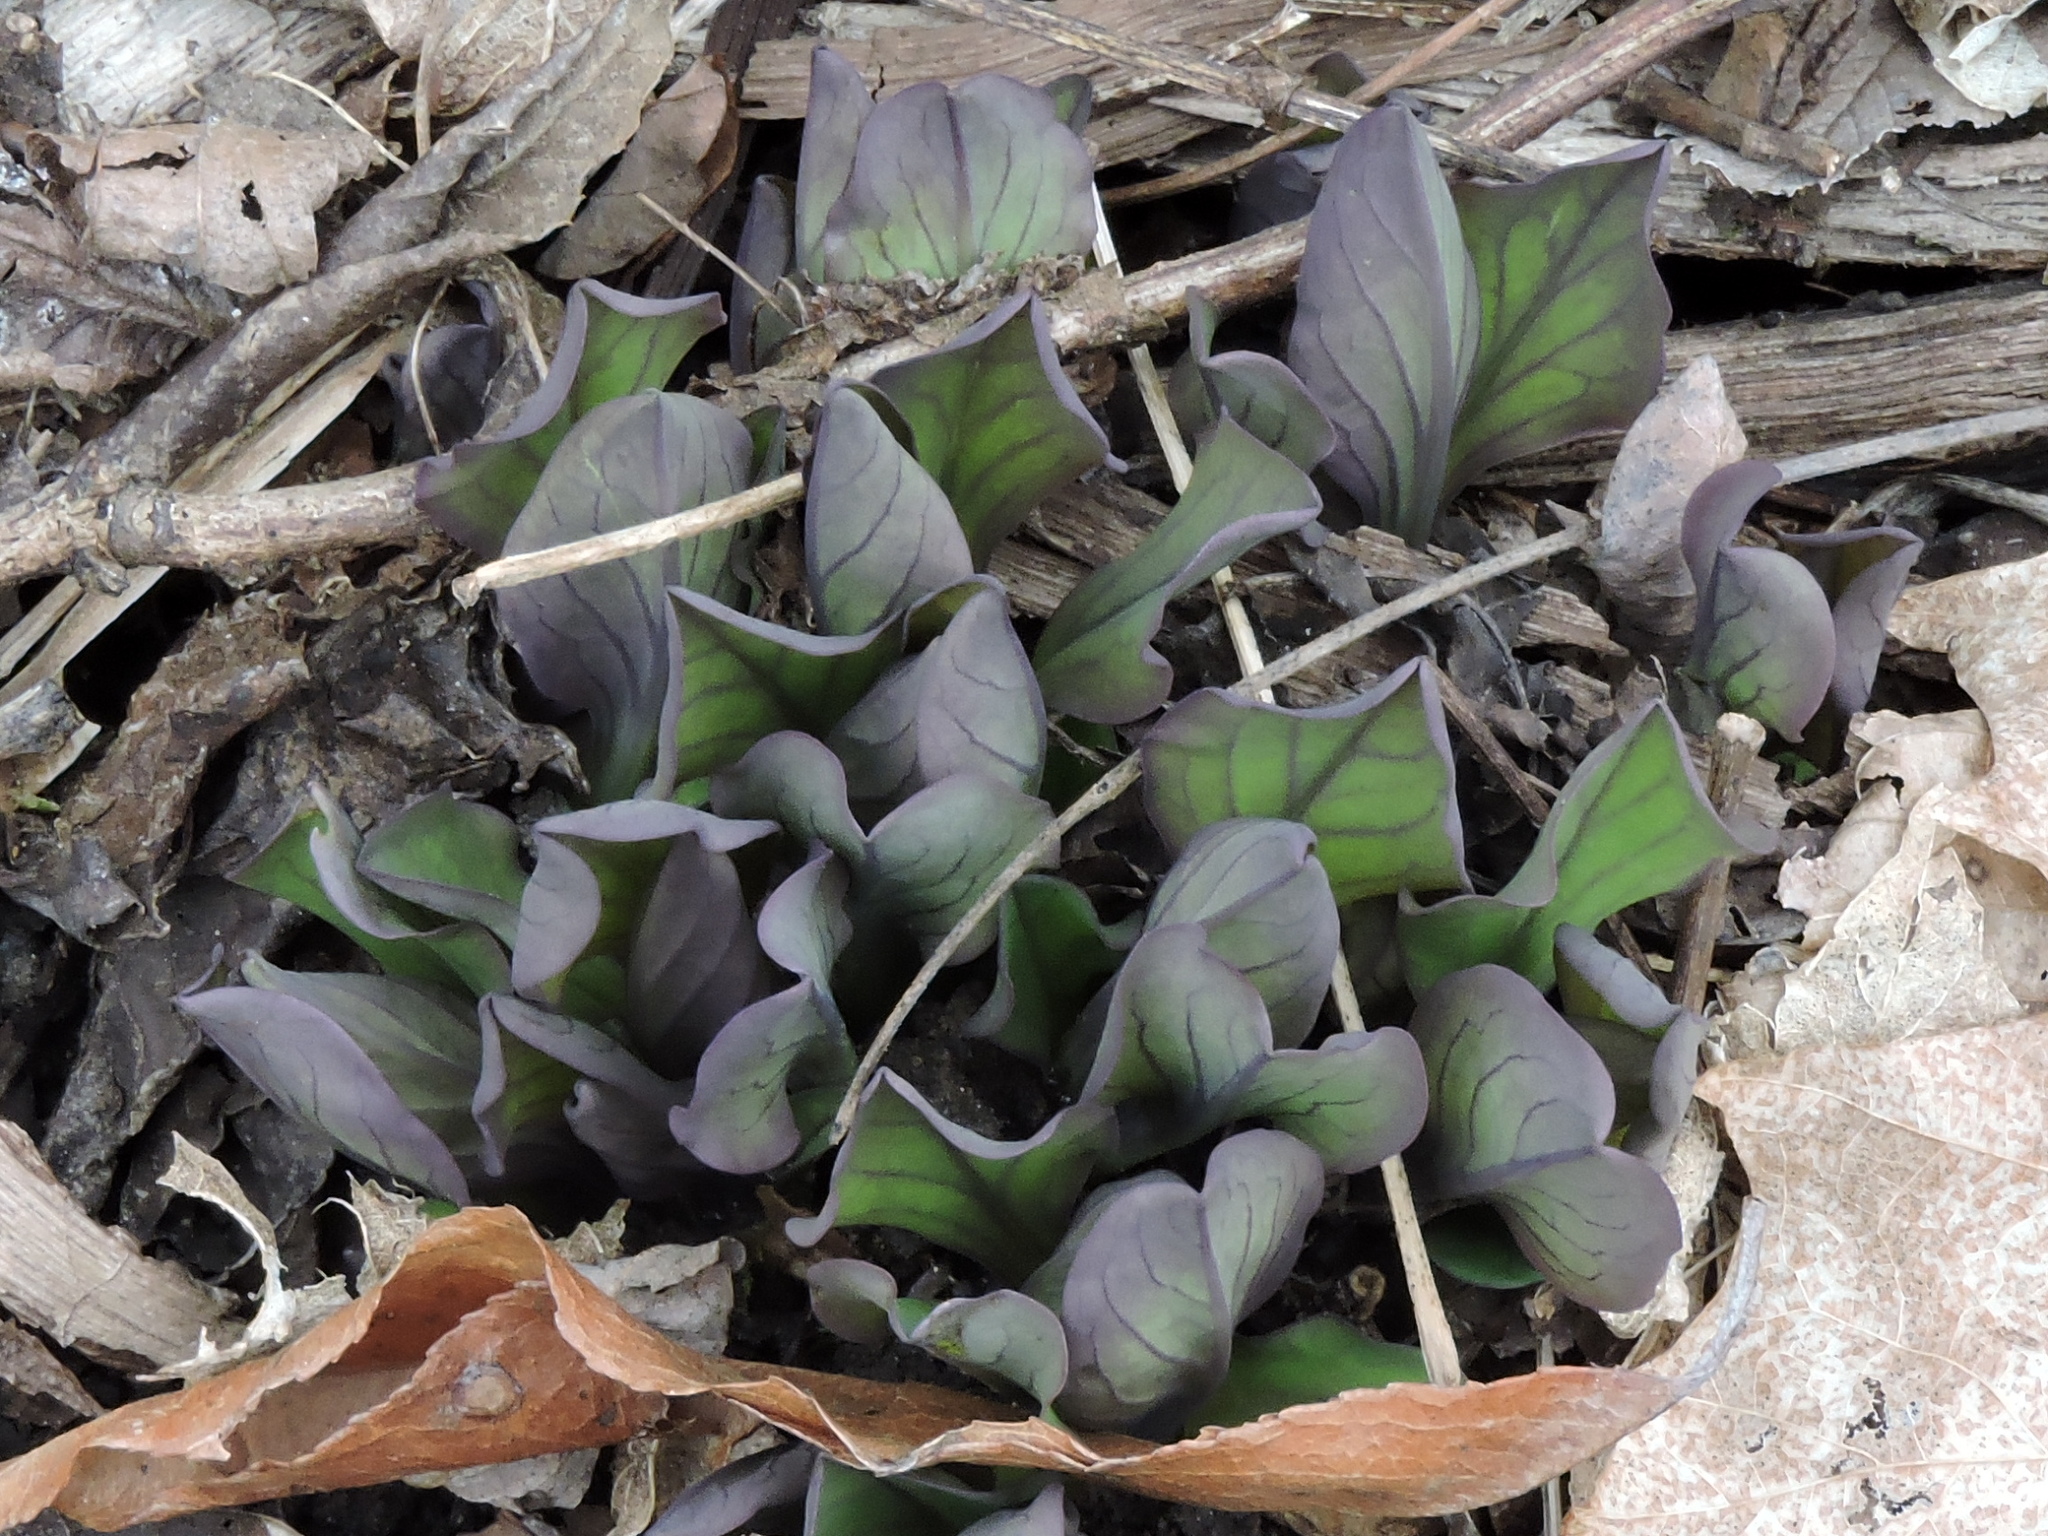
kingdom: Plantae
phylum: Tracheophyta
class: Magnoliopsida
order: Boraginales
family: Boraginaceae
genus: Mertensia
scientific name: Mertensia virginica
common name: Virginia bluebells
